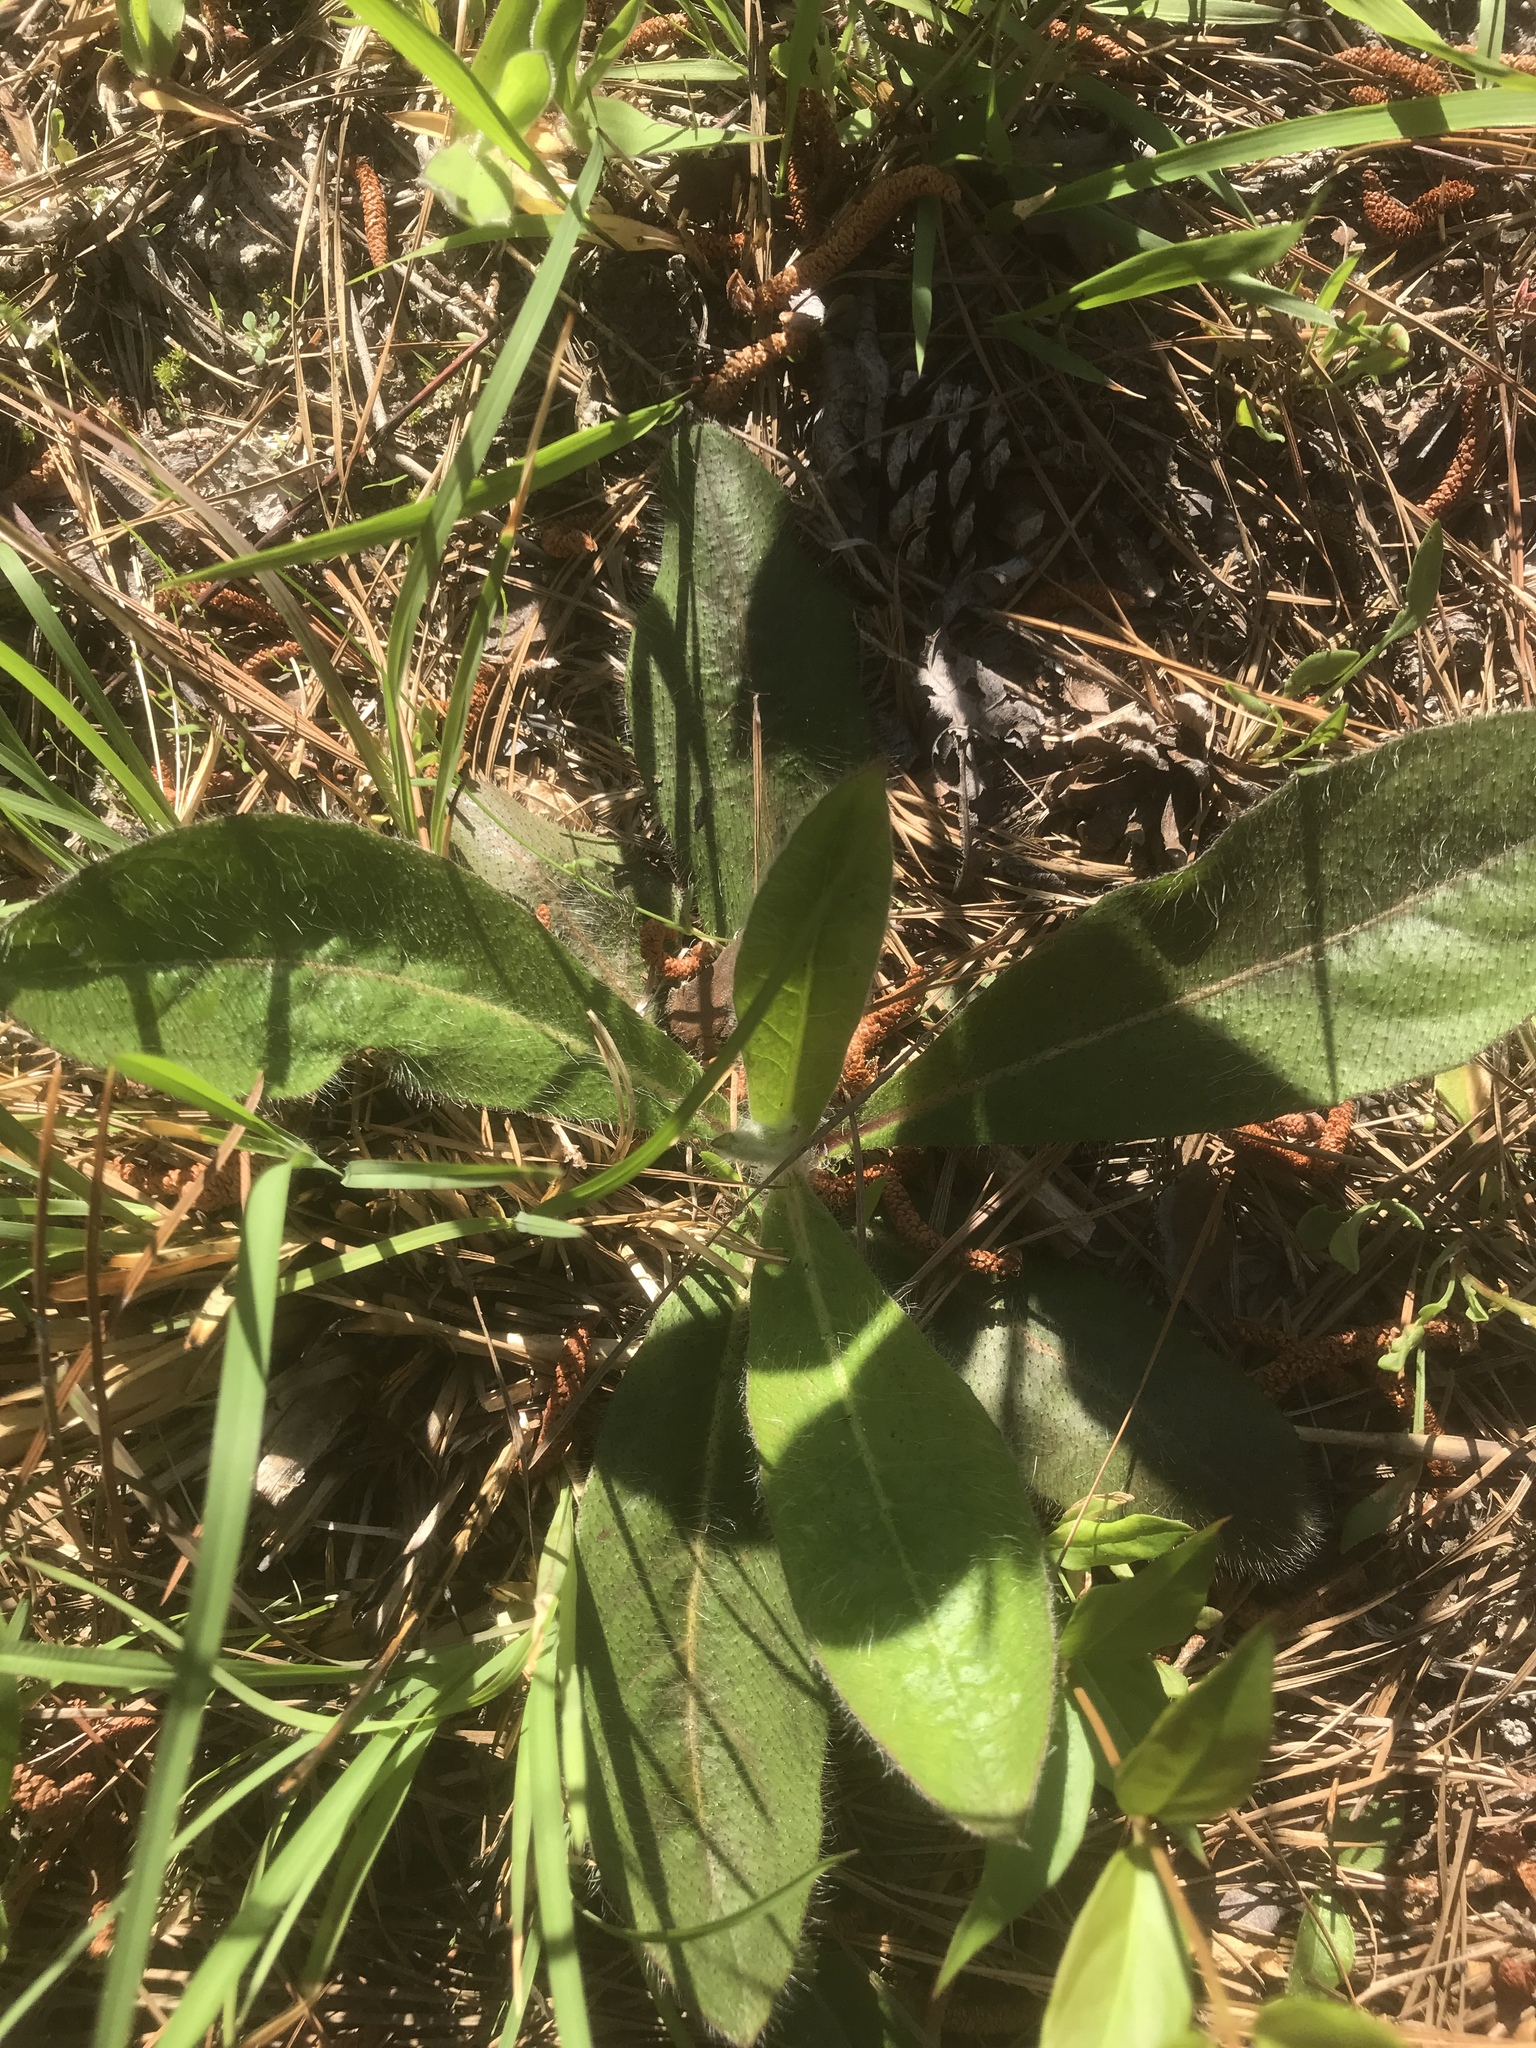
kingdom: Plantae
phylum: Tracheophyta
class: Magnoliopsida
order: Asterales
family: Asteraceae
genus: Hieracium
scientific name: Hieracium gronovii
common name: Beaked hawkweed
